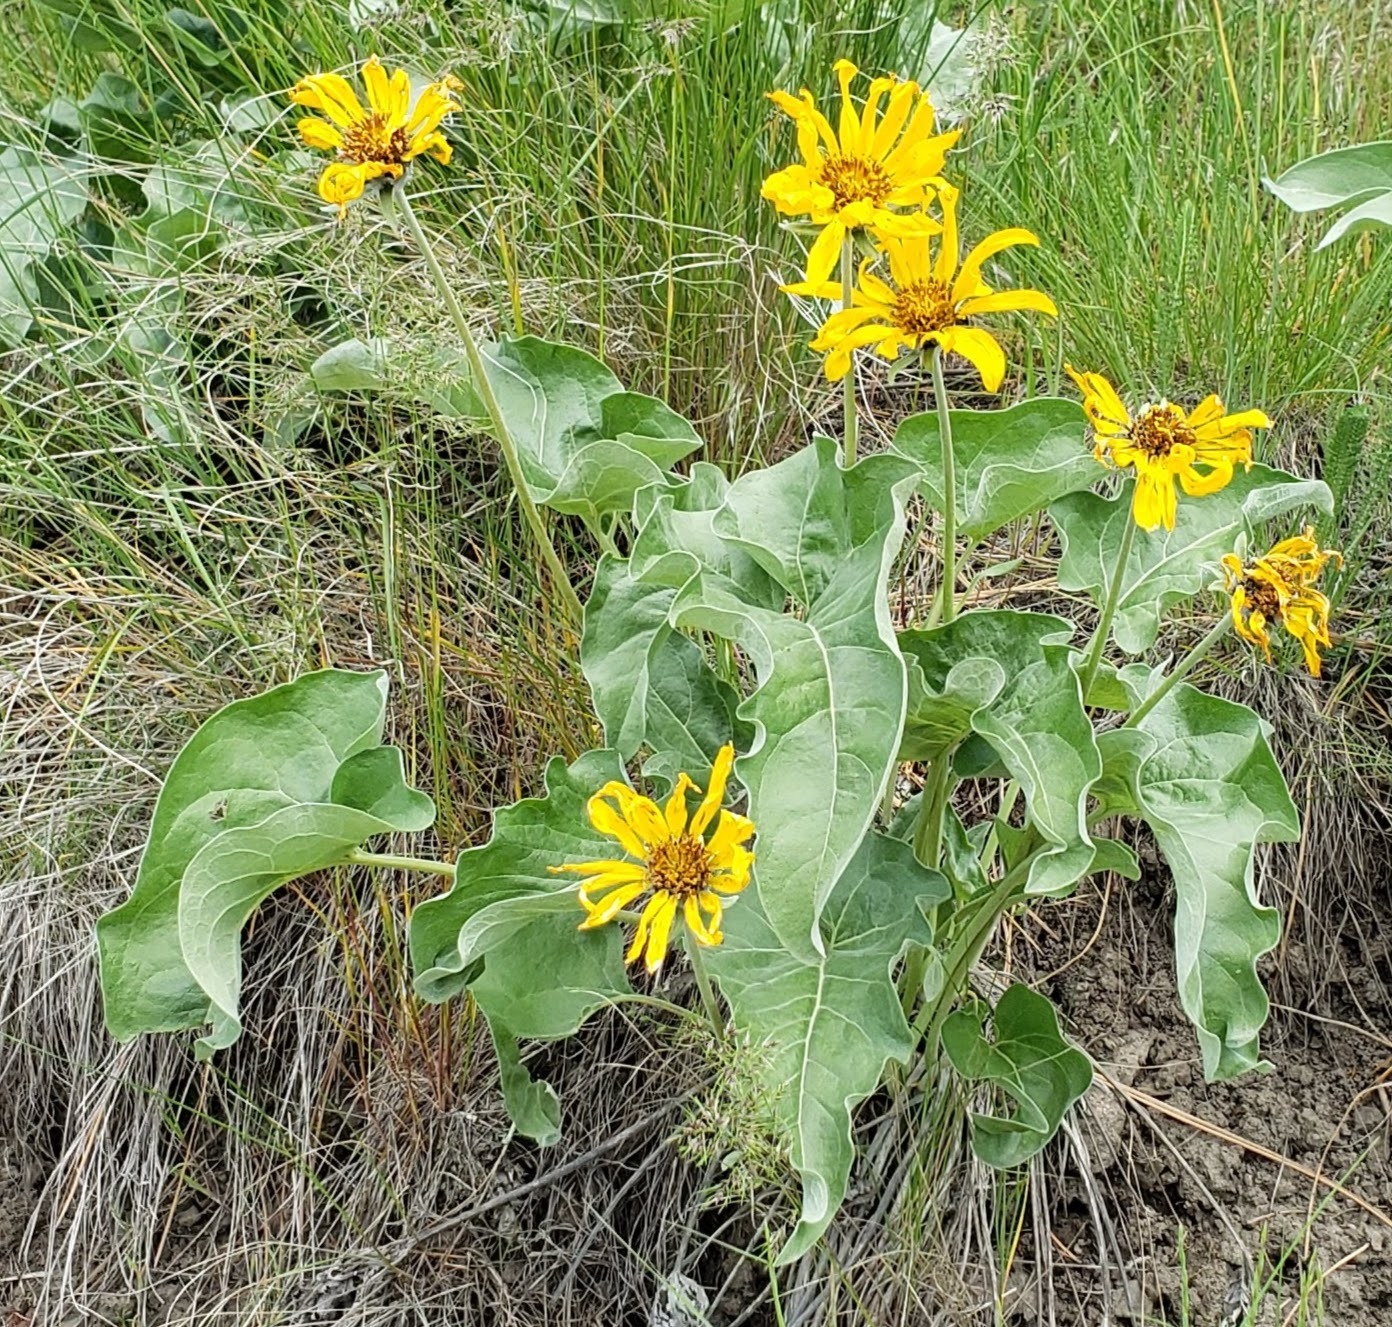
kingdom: Plantae
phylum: Tracheophyta
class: Magnoliopsida
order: Asterales
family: Asteraceae
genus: Wyethia
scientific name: Wyethia sagittata
